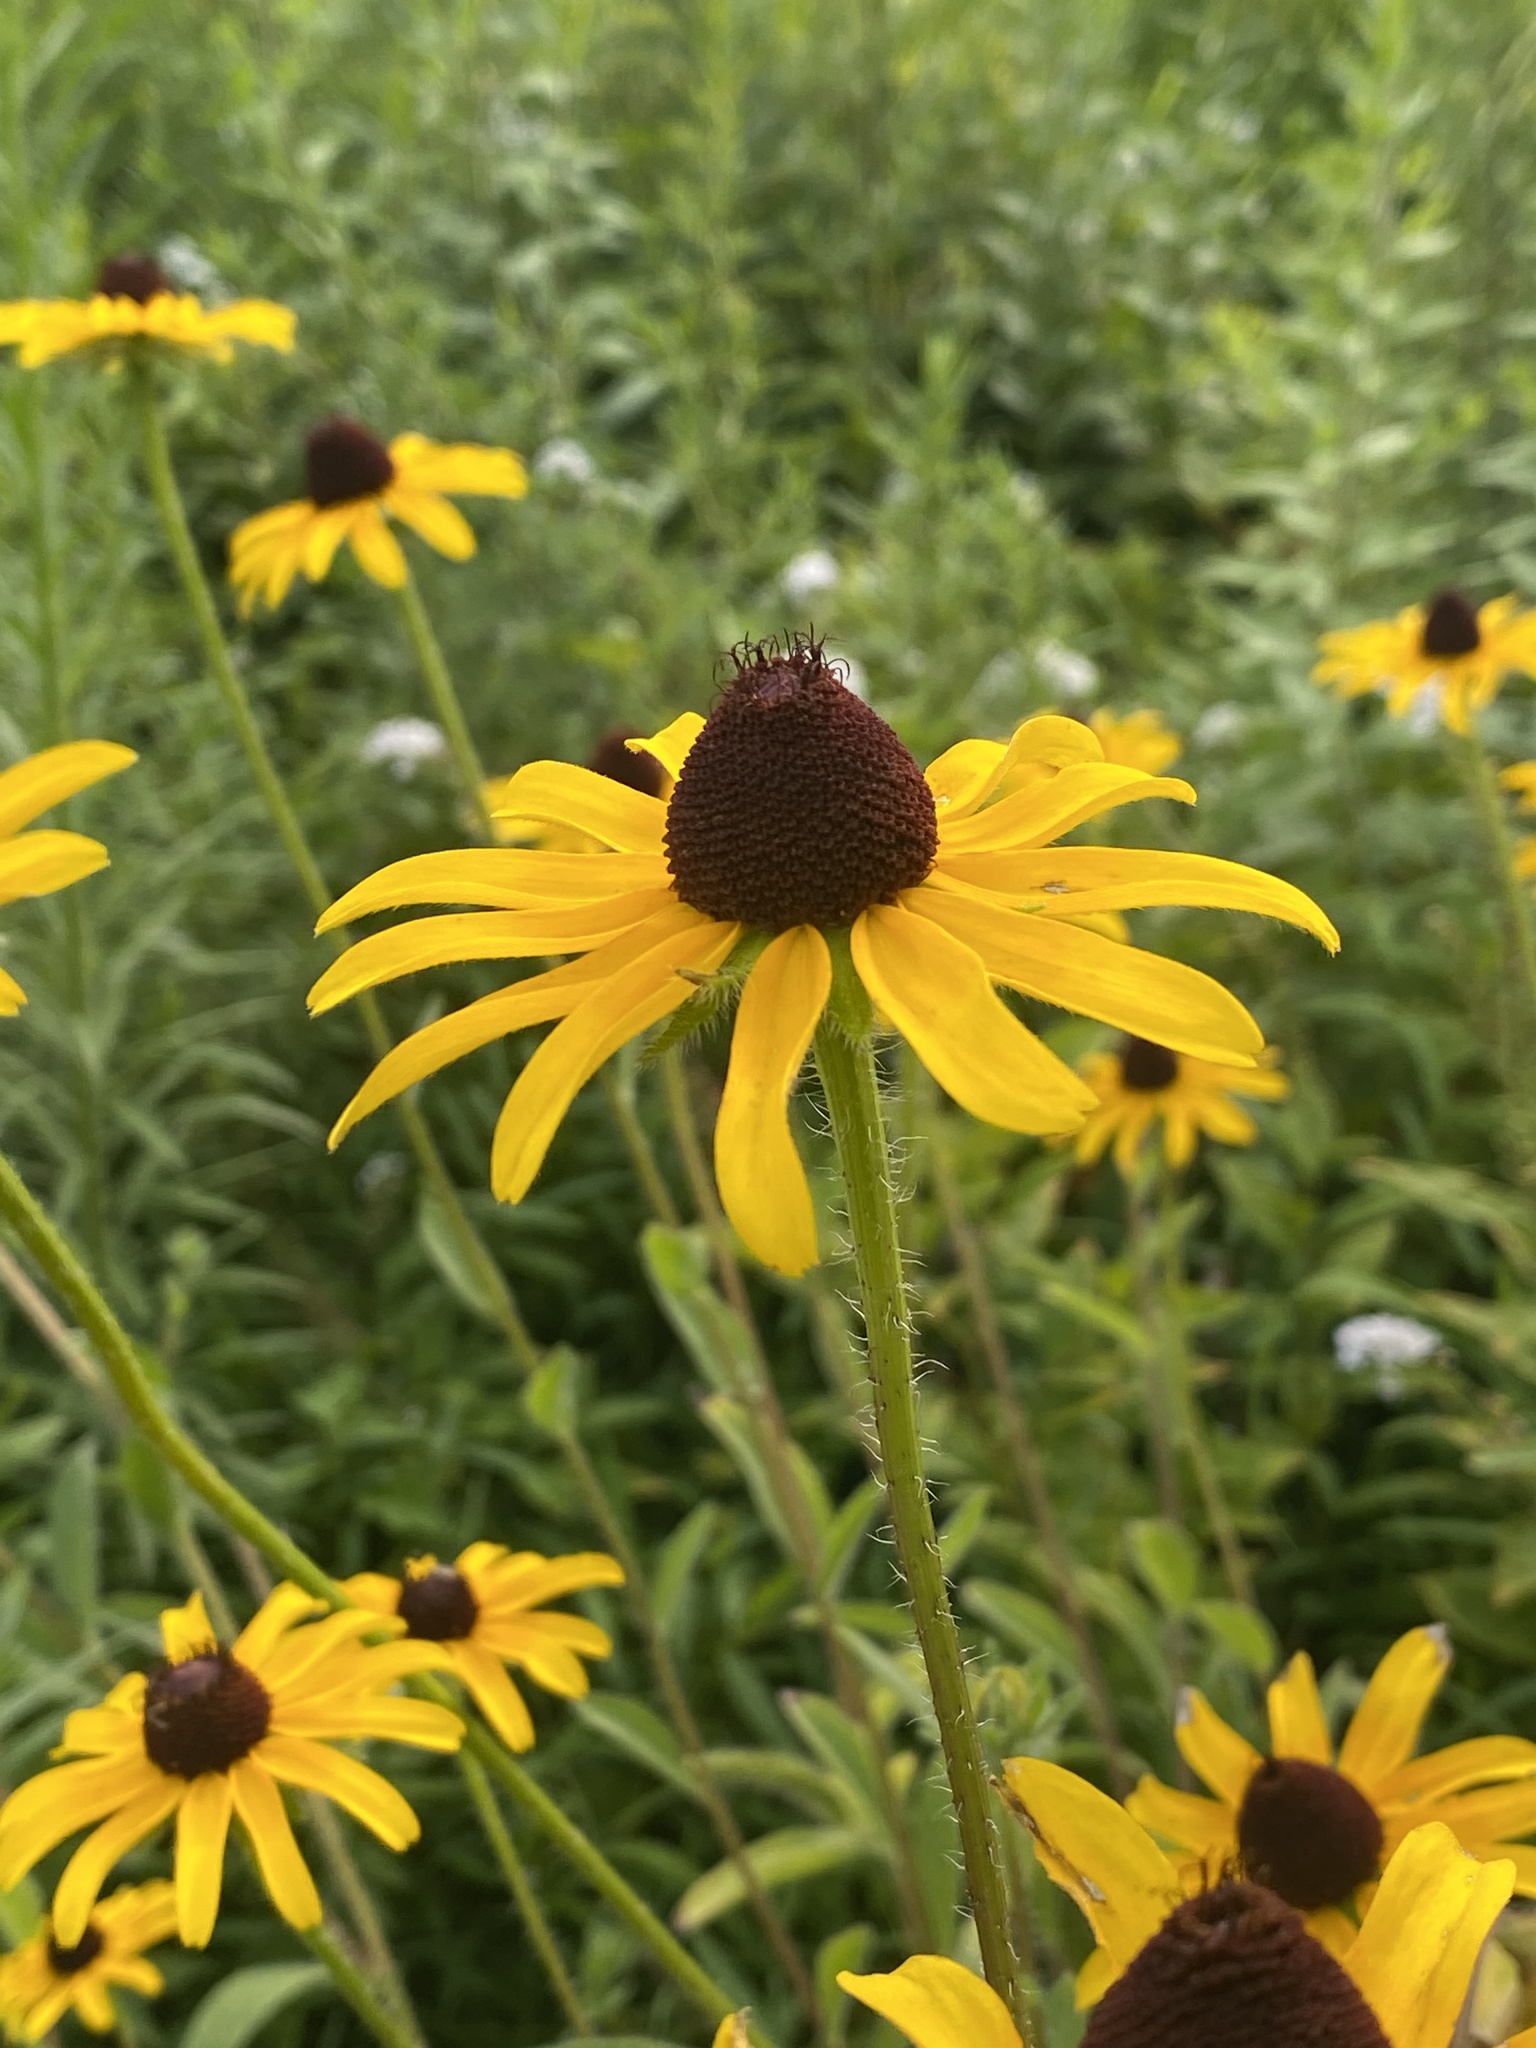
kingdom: Plantae
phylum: Tracheophyta
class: Magnoliopsida
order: Asterales
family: Asteraceae
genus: Rudbeckia
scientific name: Rudbeckia hirta
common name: Black-eyed-susan
